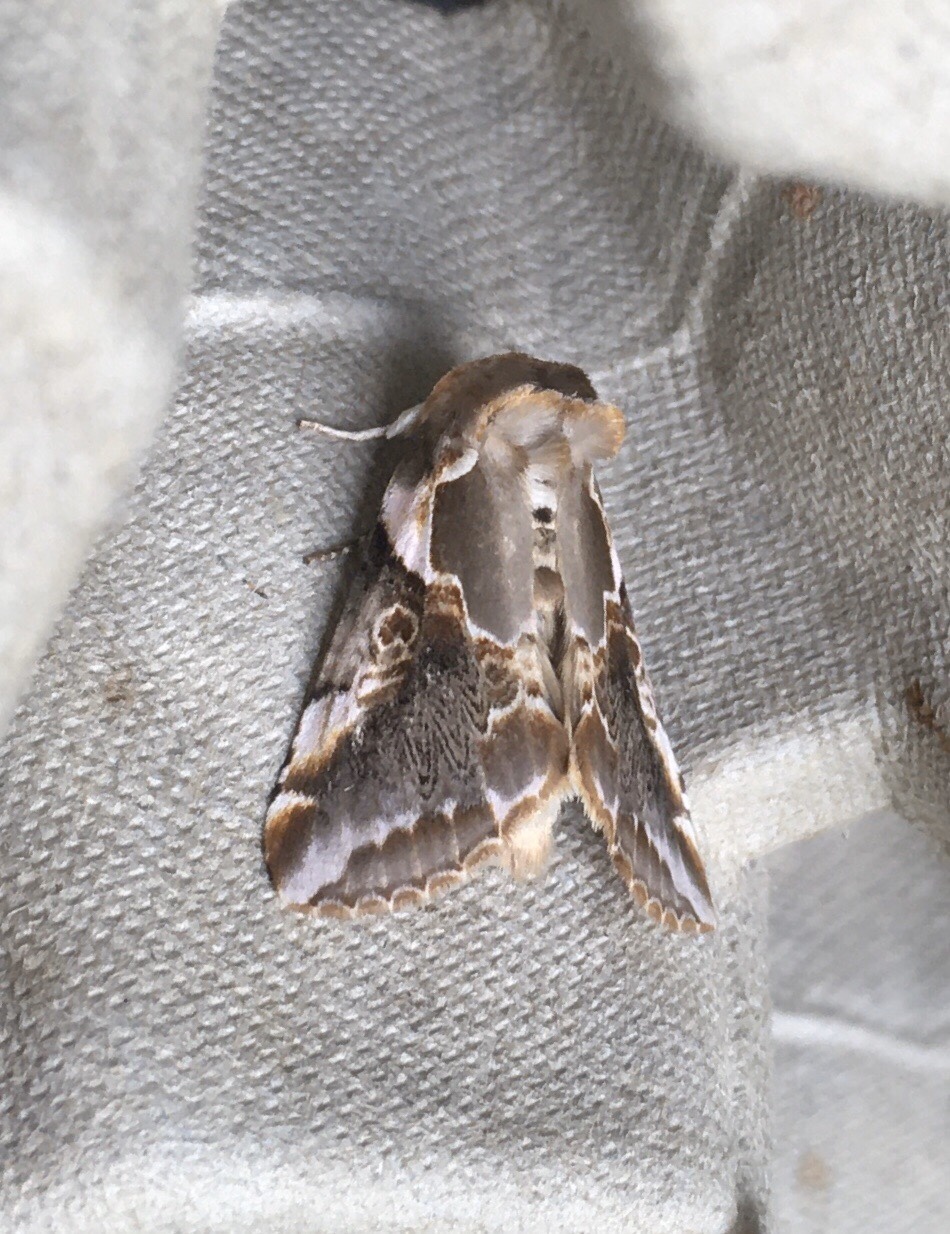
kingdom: Animalia
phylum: Arthropoda
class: Insecta
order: Lepidoptera
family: Drepanidae
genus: Habrosyne
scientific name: Habrosyne gloriosa
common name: Glorious habrosyne moth
